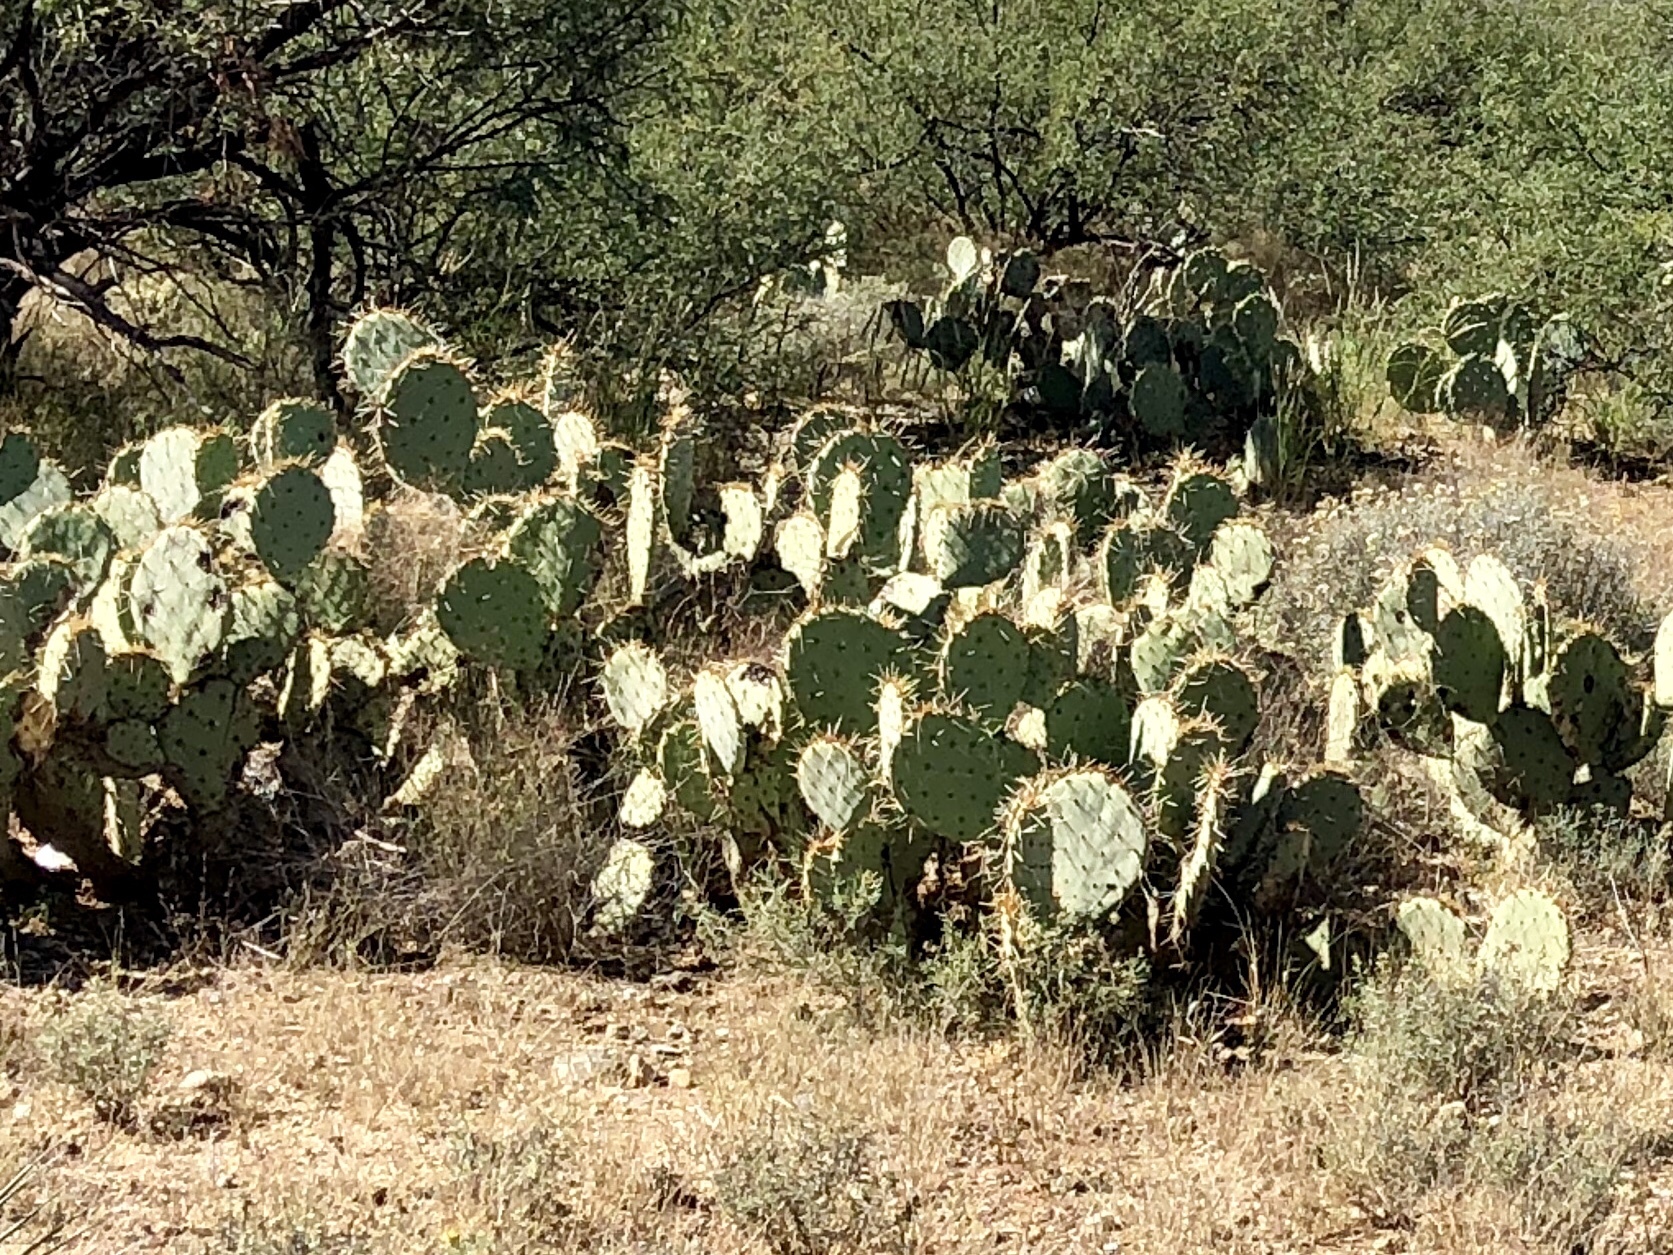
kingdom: Plantae
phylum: Tracheophyta
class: Magnoliopsida
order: Caryophyllales
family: Cactaceae
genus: Opuntia
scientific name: Opuntia engelmannii
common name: Cactus-apple
